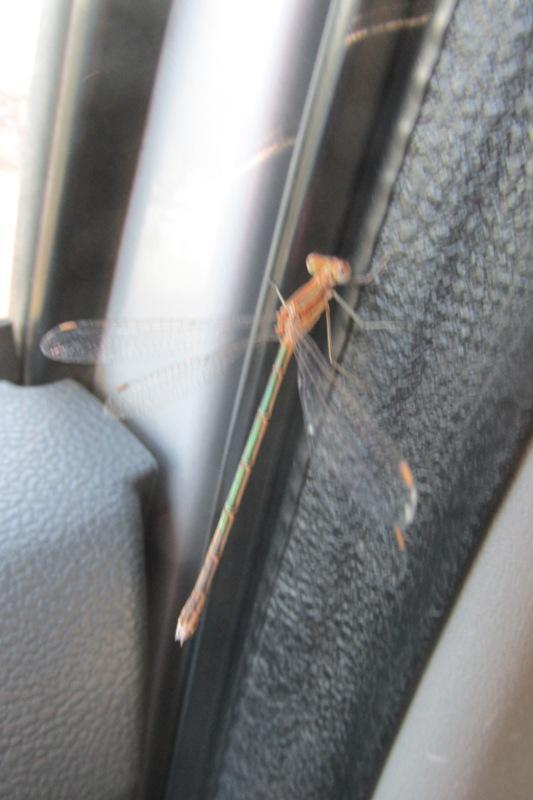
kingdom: Animalia
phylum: Arthropoda
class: Insecta
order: Odonata
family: Lestidae
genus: Lestes
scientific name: Lestes plagiatus
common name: Highland spreadwing
